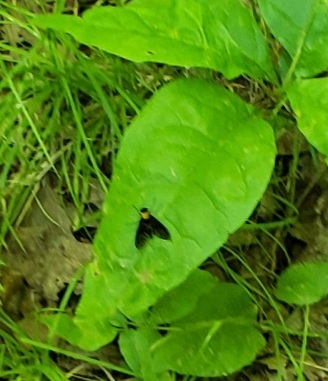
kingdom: Animalia
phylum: Arthropoda
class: Insecta
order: Diptera
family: Rhagionidae
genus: Chrysopilus
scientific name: Chrysopilus thoracicus
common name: Golden-backed snipe fly
